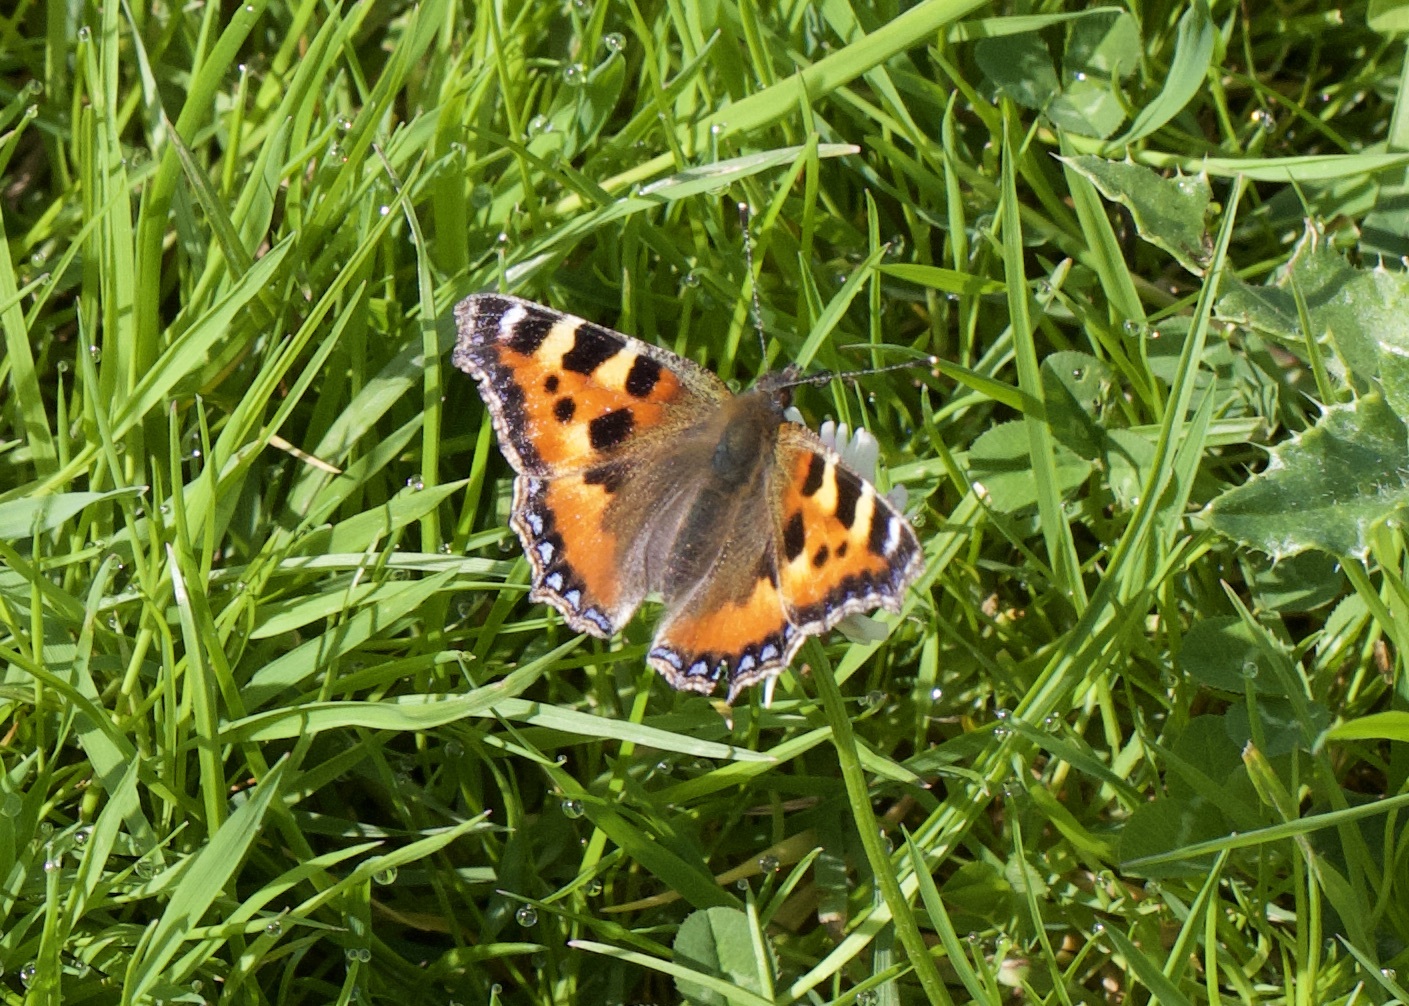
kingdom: Animalia
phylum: Arthropoda
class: Insecta
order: Lepidoptera
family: Nymphalidae
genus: Aglais
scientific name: Aglais urticae
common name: Small tortoiseshell
